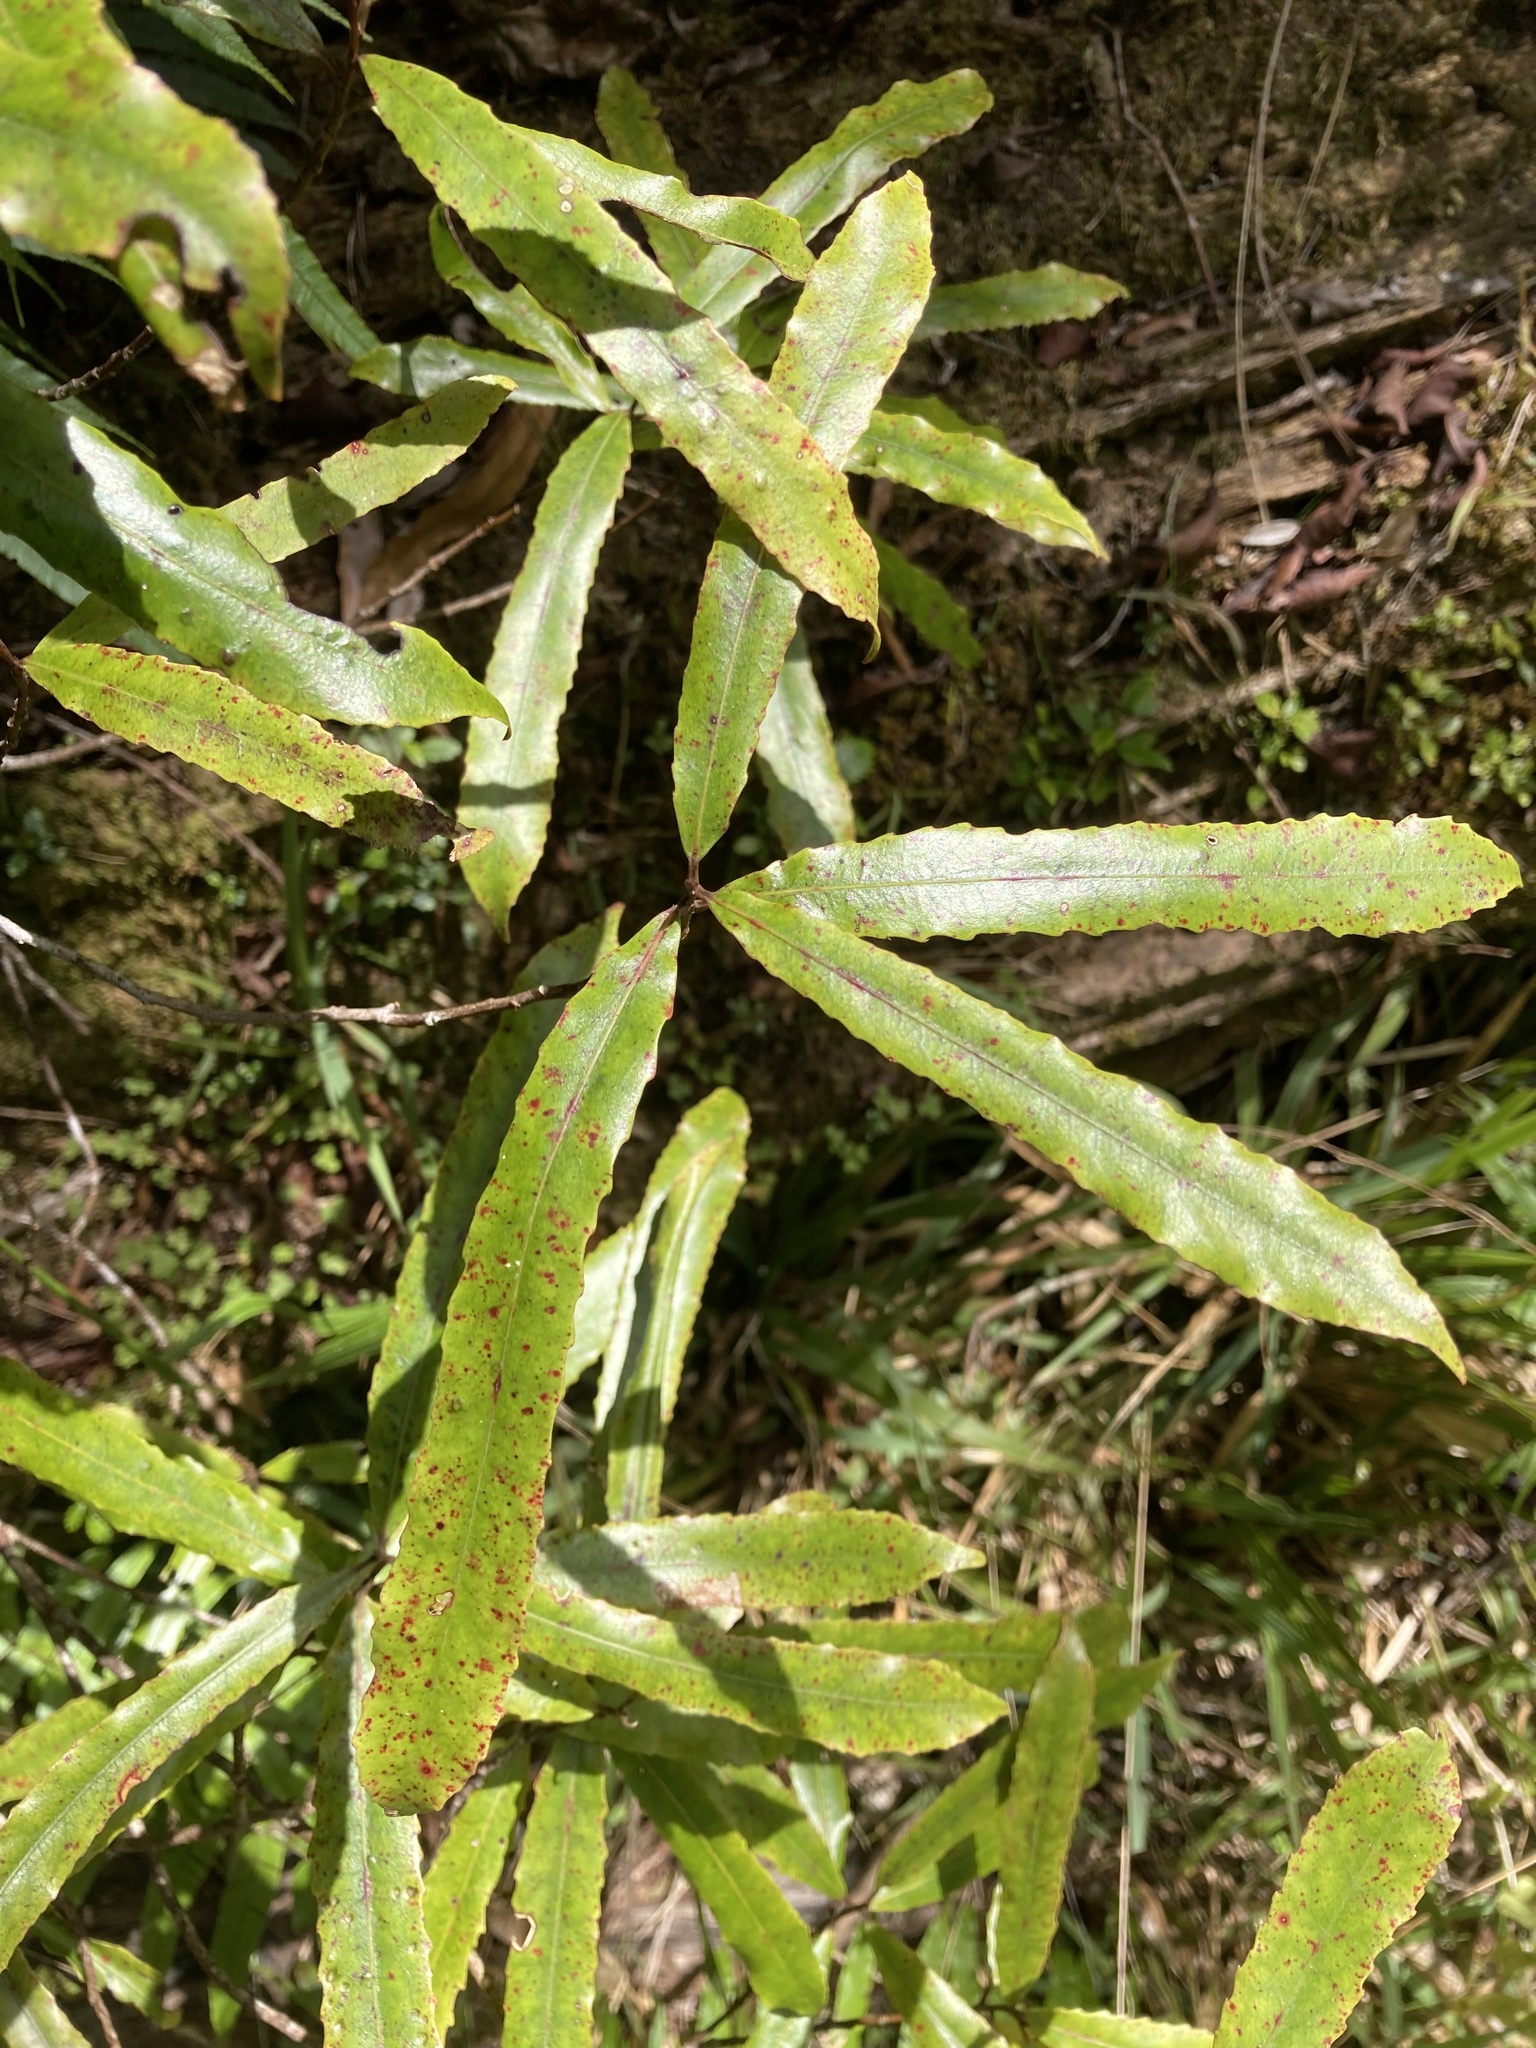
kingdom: Plantae
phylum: Tracheophyta
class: Magnoliopsida
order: Oxalidales
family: Elaeocarpaceae
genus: Elaeocarpus
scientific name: Elaeocarpus dentatus
